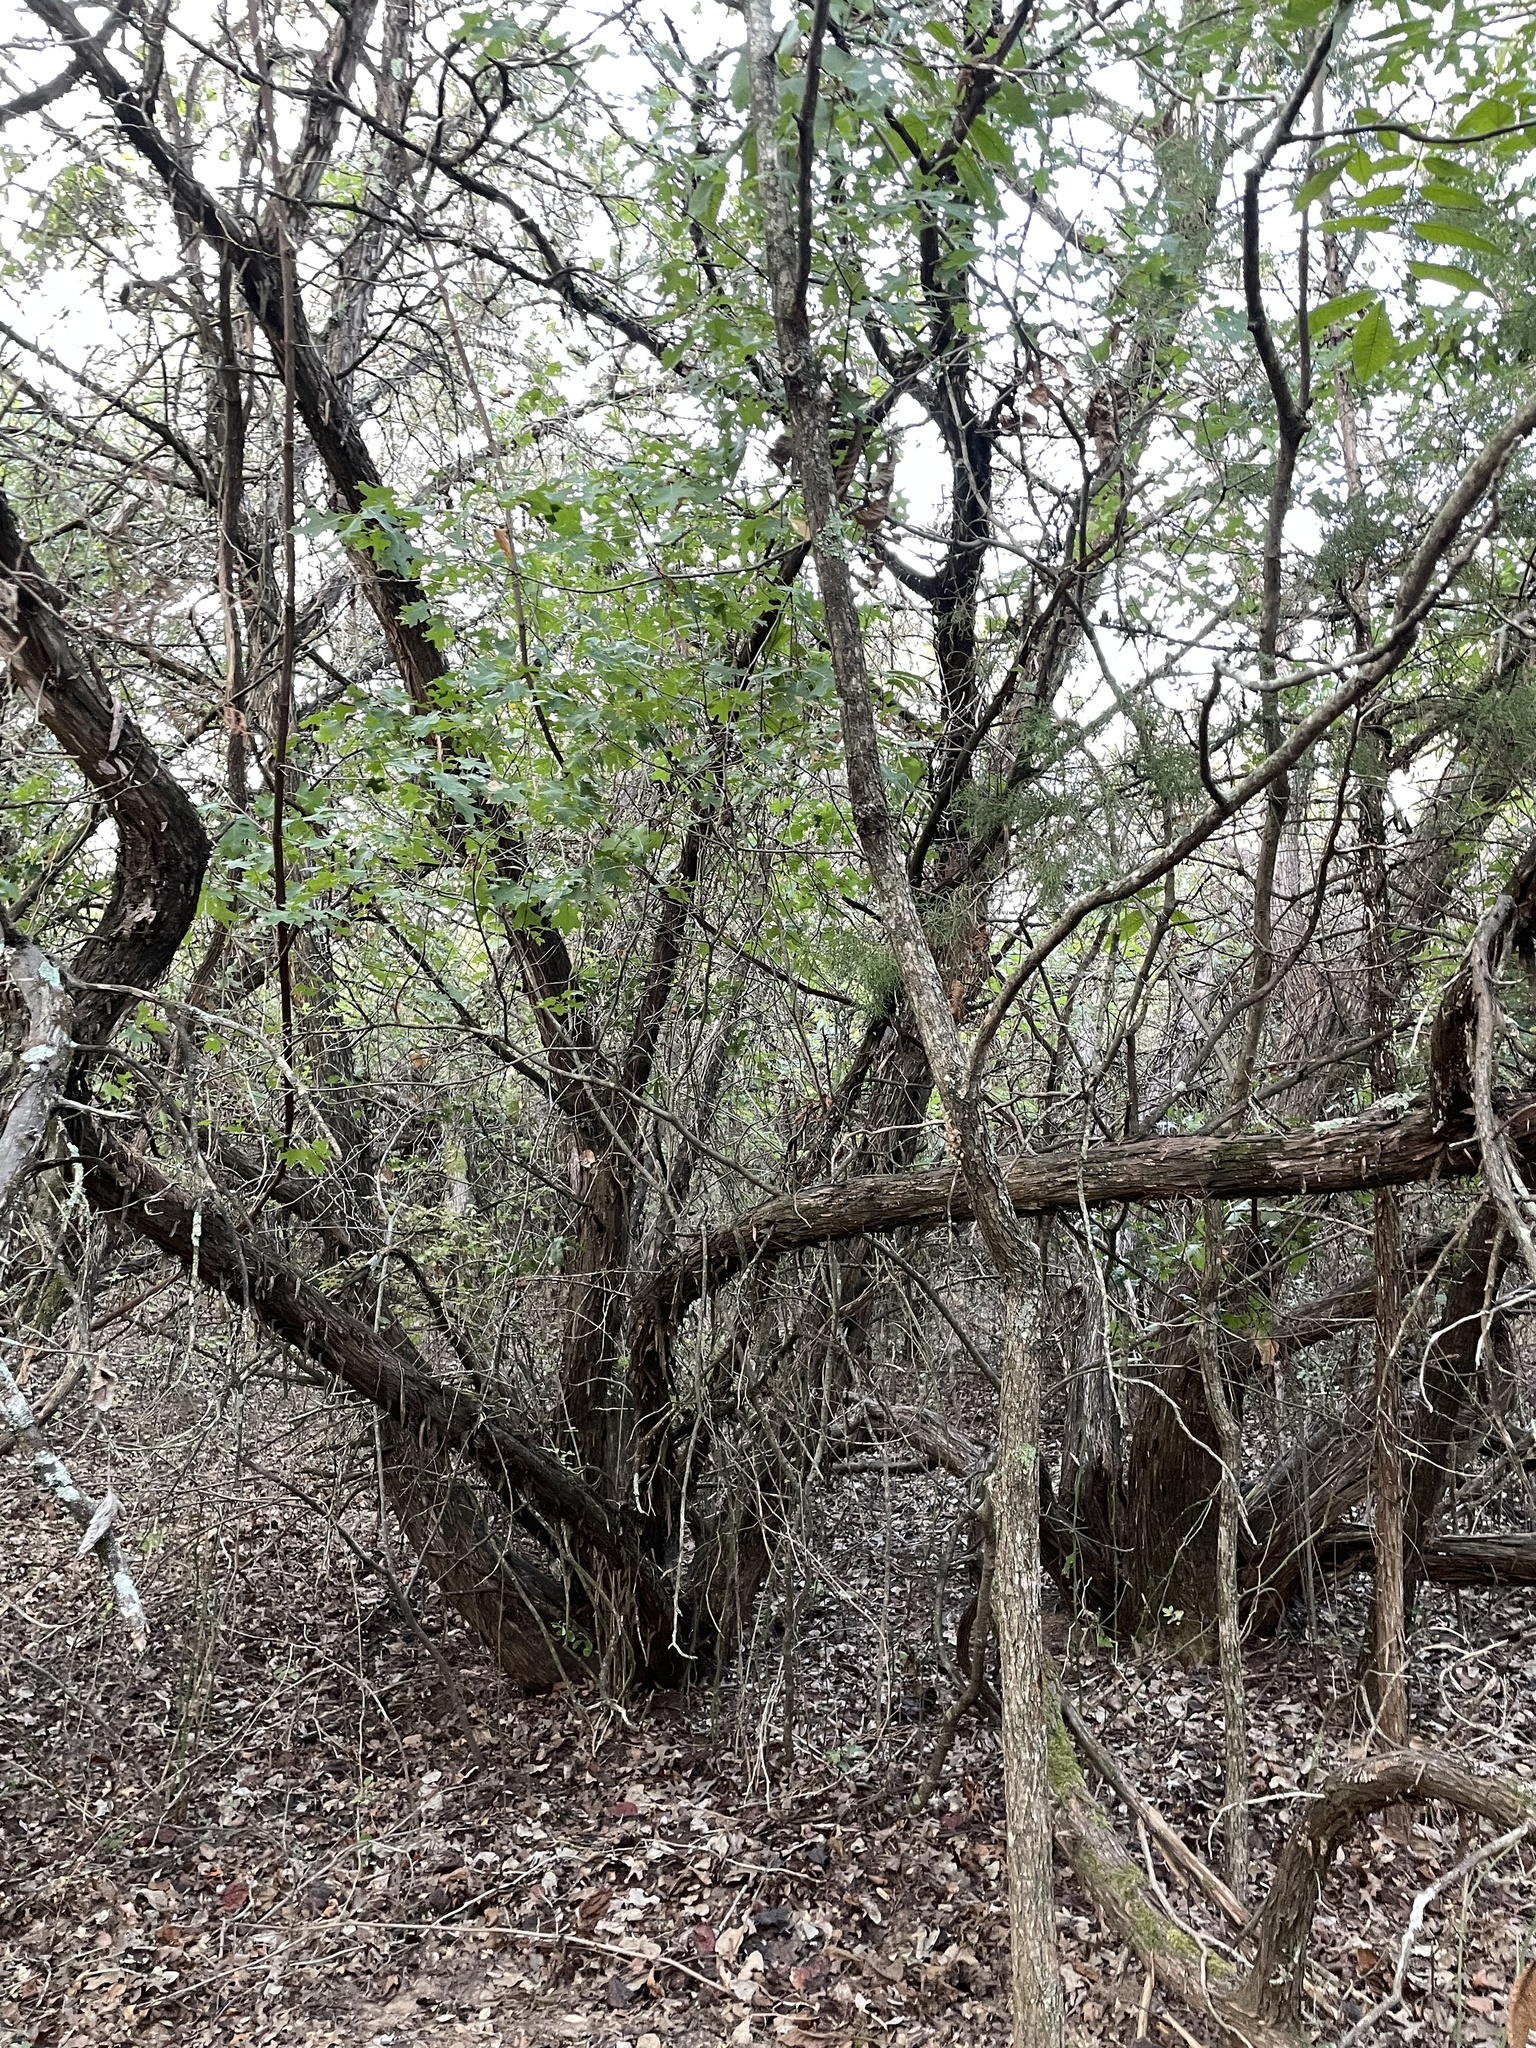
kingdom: Plantae
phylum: Tracheophyta
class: Magnoliopsida
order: Fagales
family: Fagaceae
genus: Quercus
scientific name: Quercus buckleyi
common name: Buckley oak
